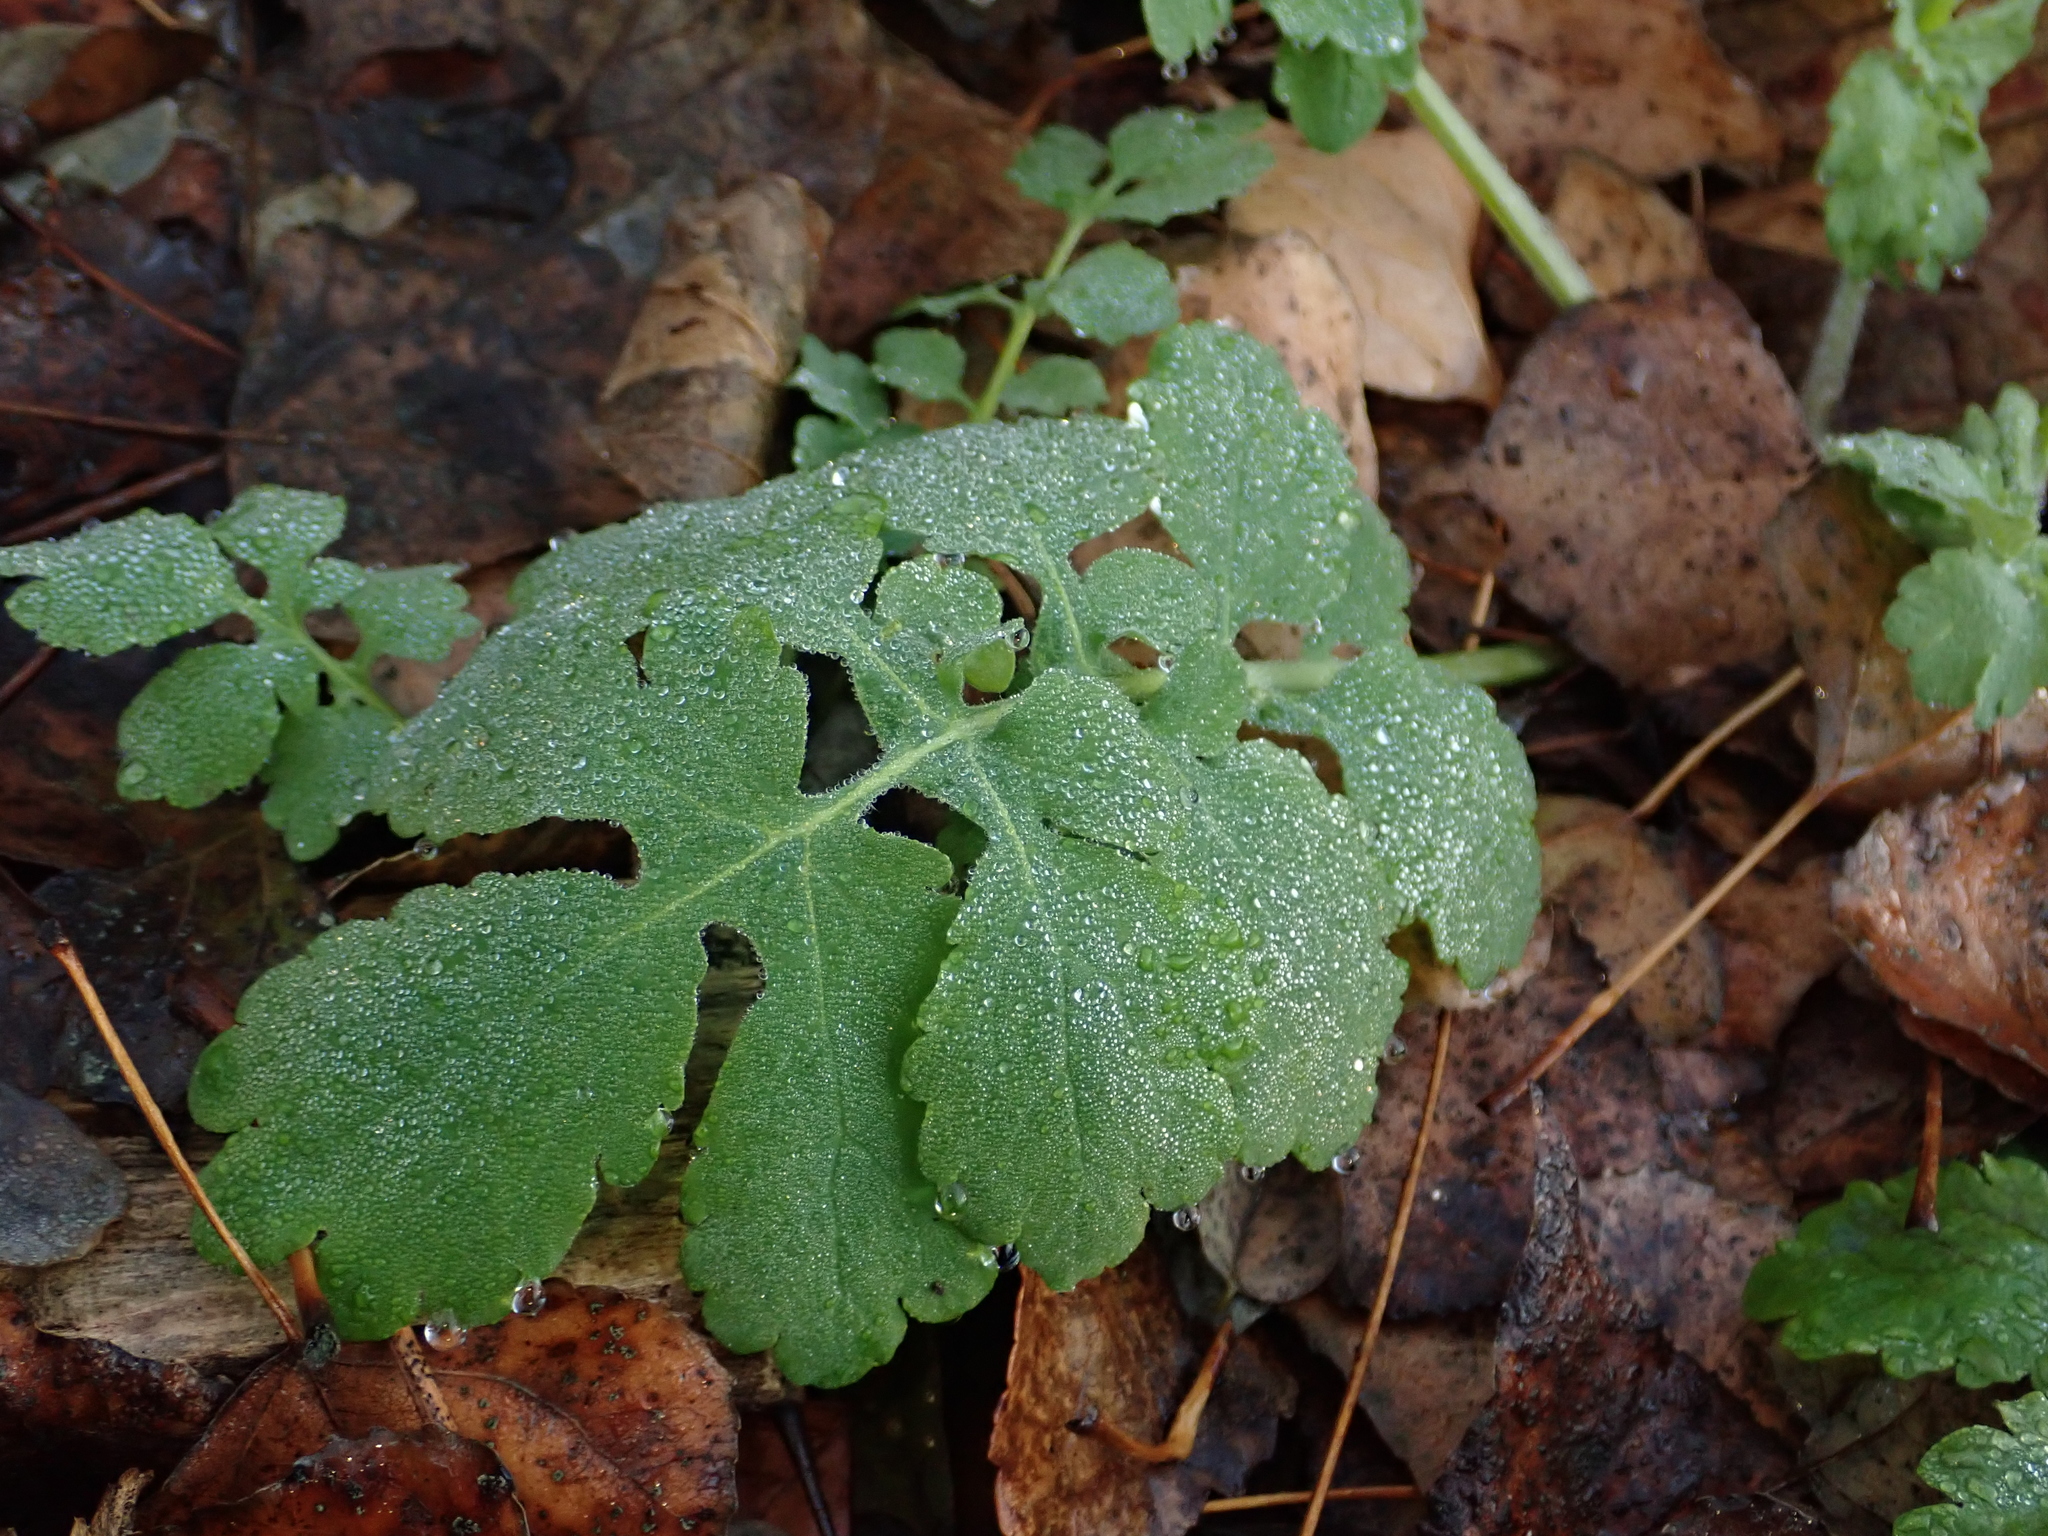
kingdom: Plantae
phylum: Tracheophyta
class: Magnoliopsida
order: Ranunculales
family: Papaveraceae
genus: Chelidonium
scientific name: Chelidonium majus
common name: Greater celandine
